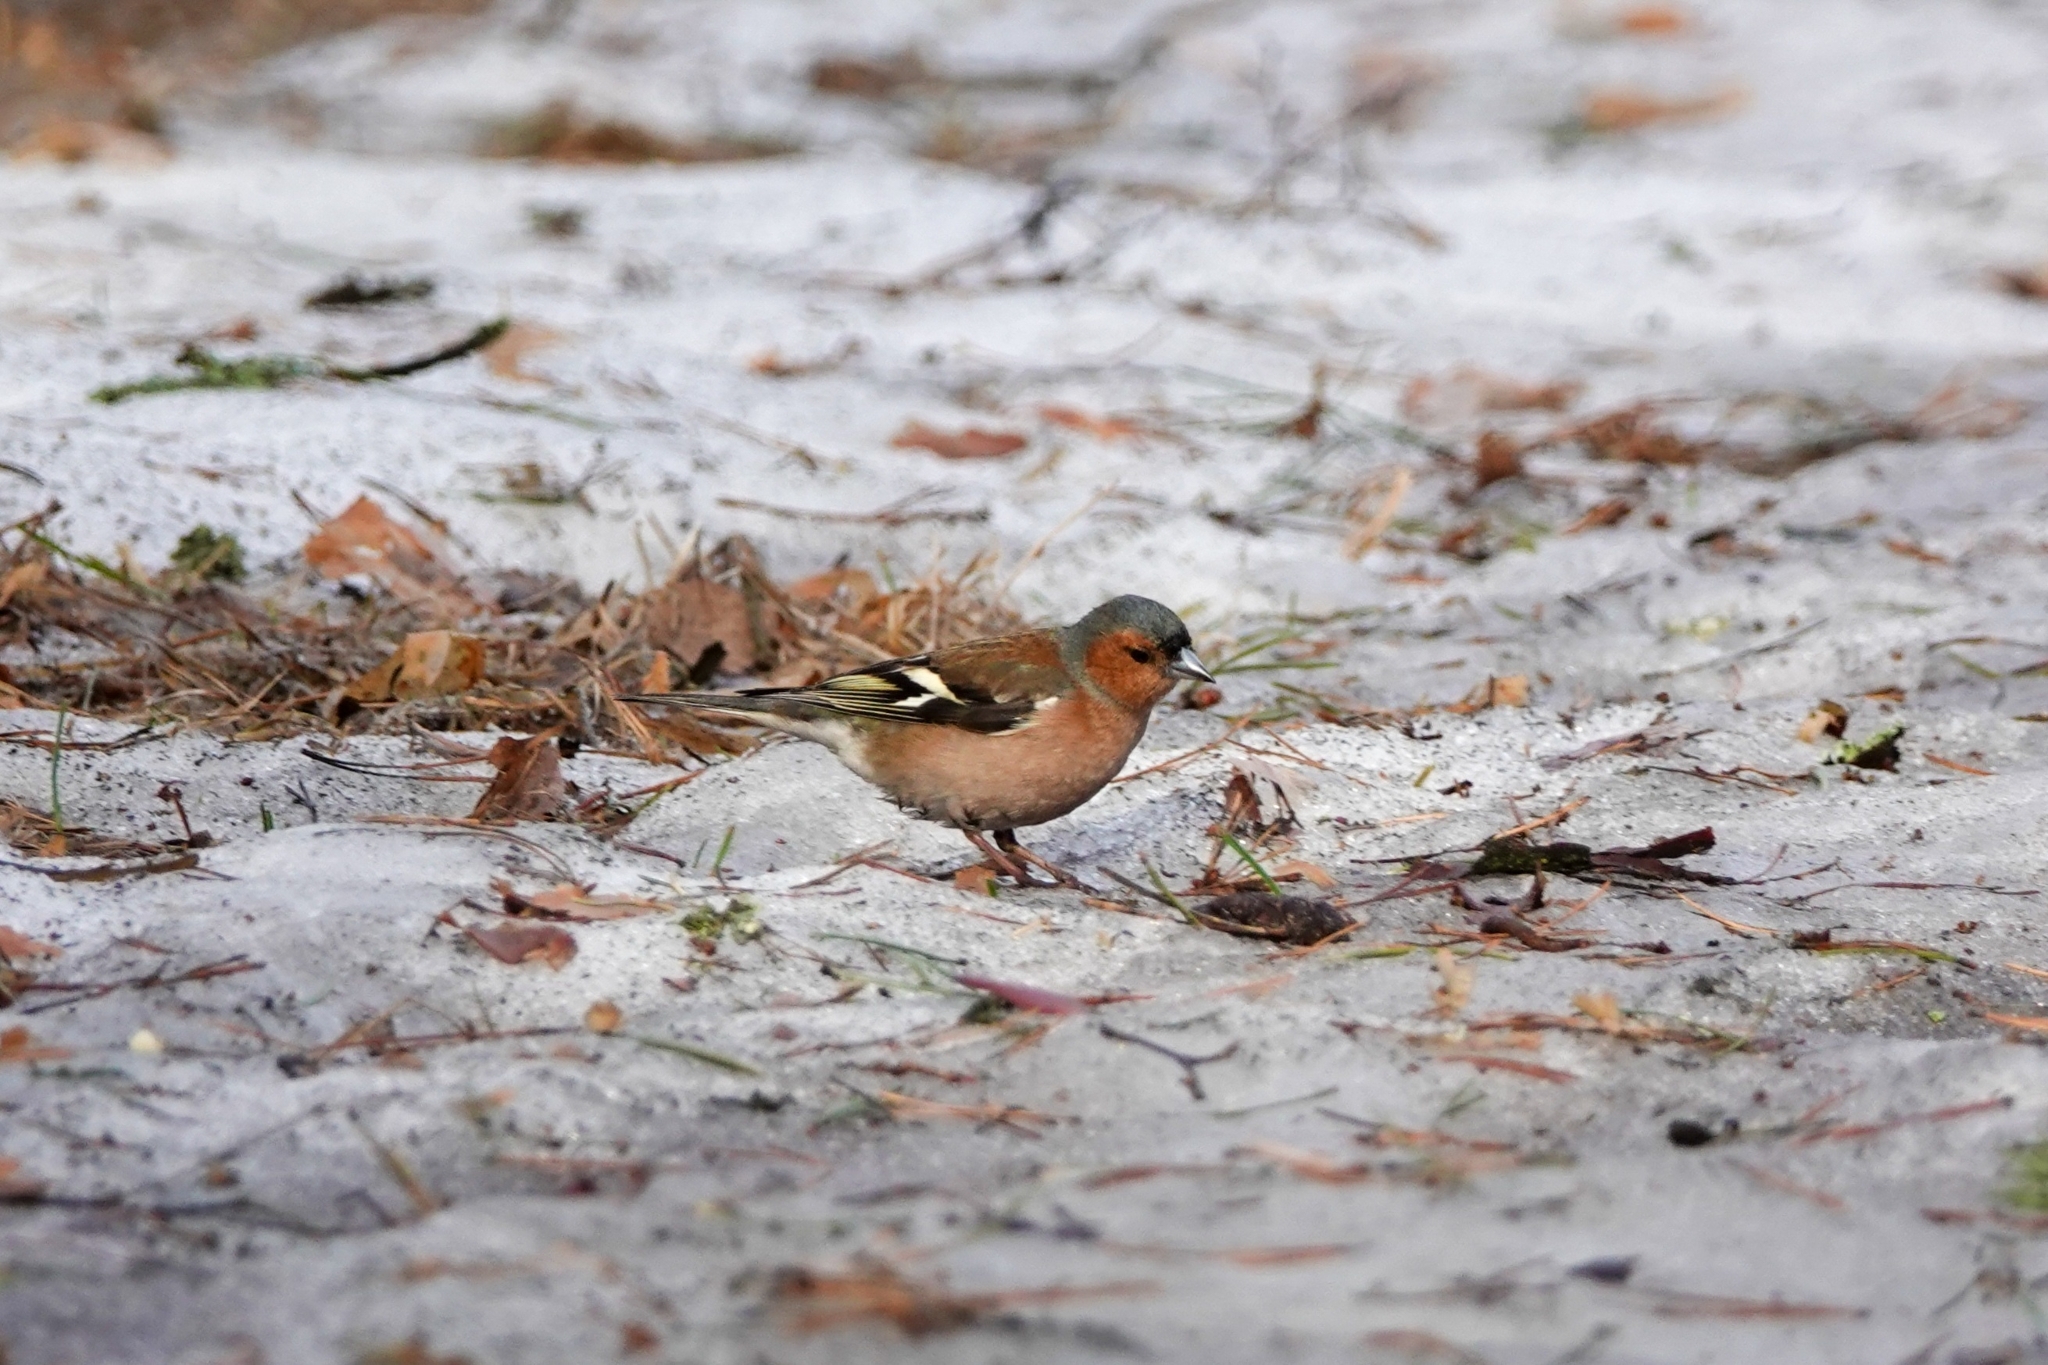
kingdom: Animalia
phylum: Chordata
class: Aves
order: Passeriformes
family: Fringillidae
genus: Fringilla
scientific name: Fringilla coelebs
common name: Common chaffinch
